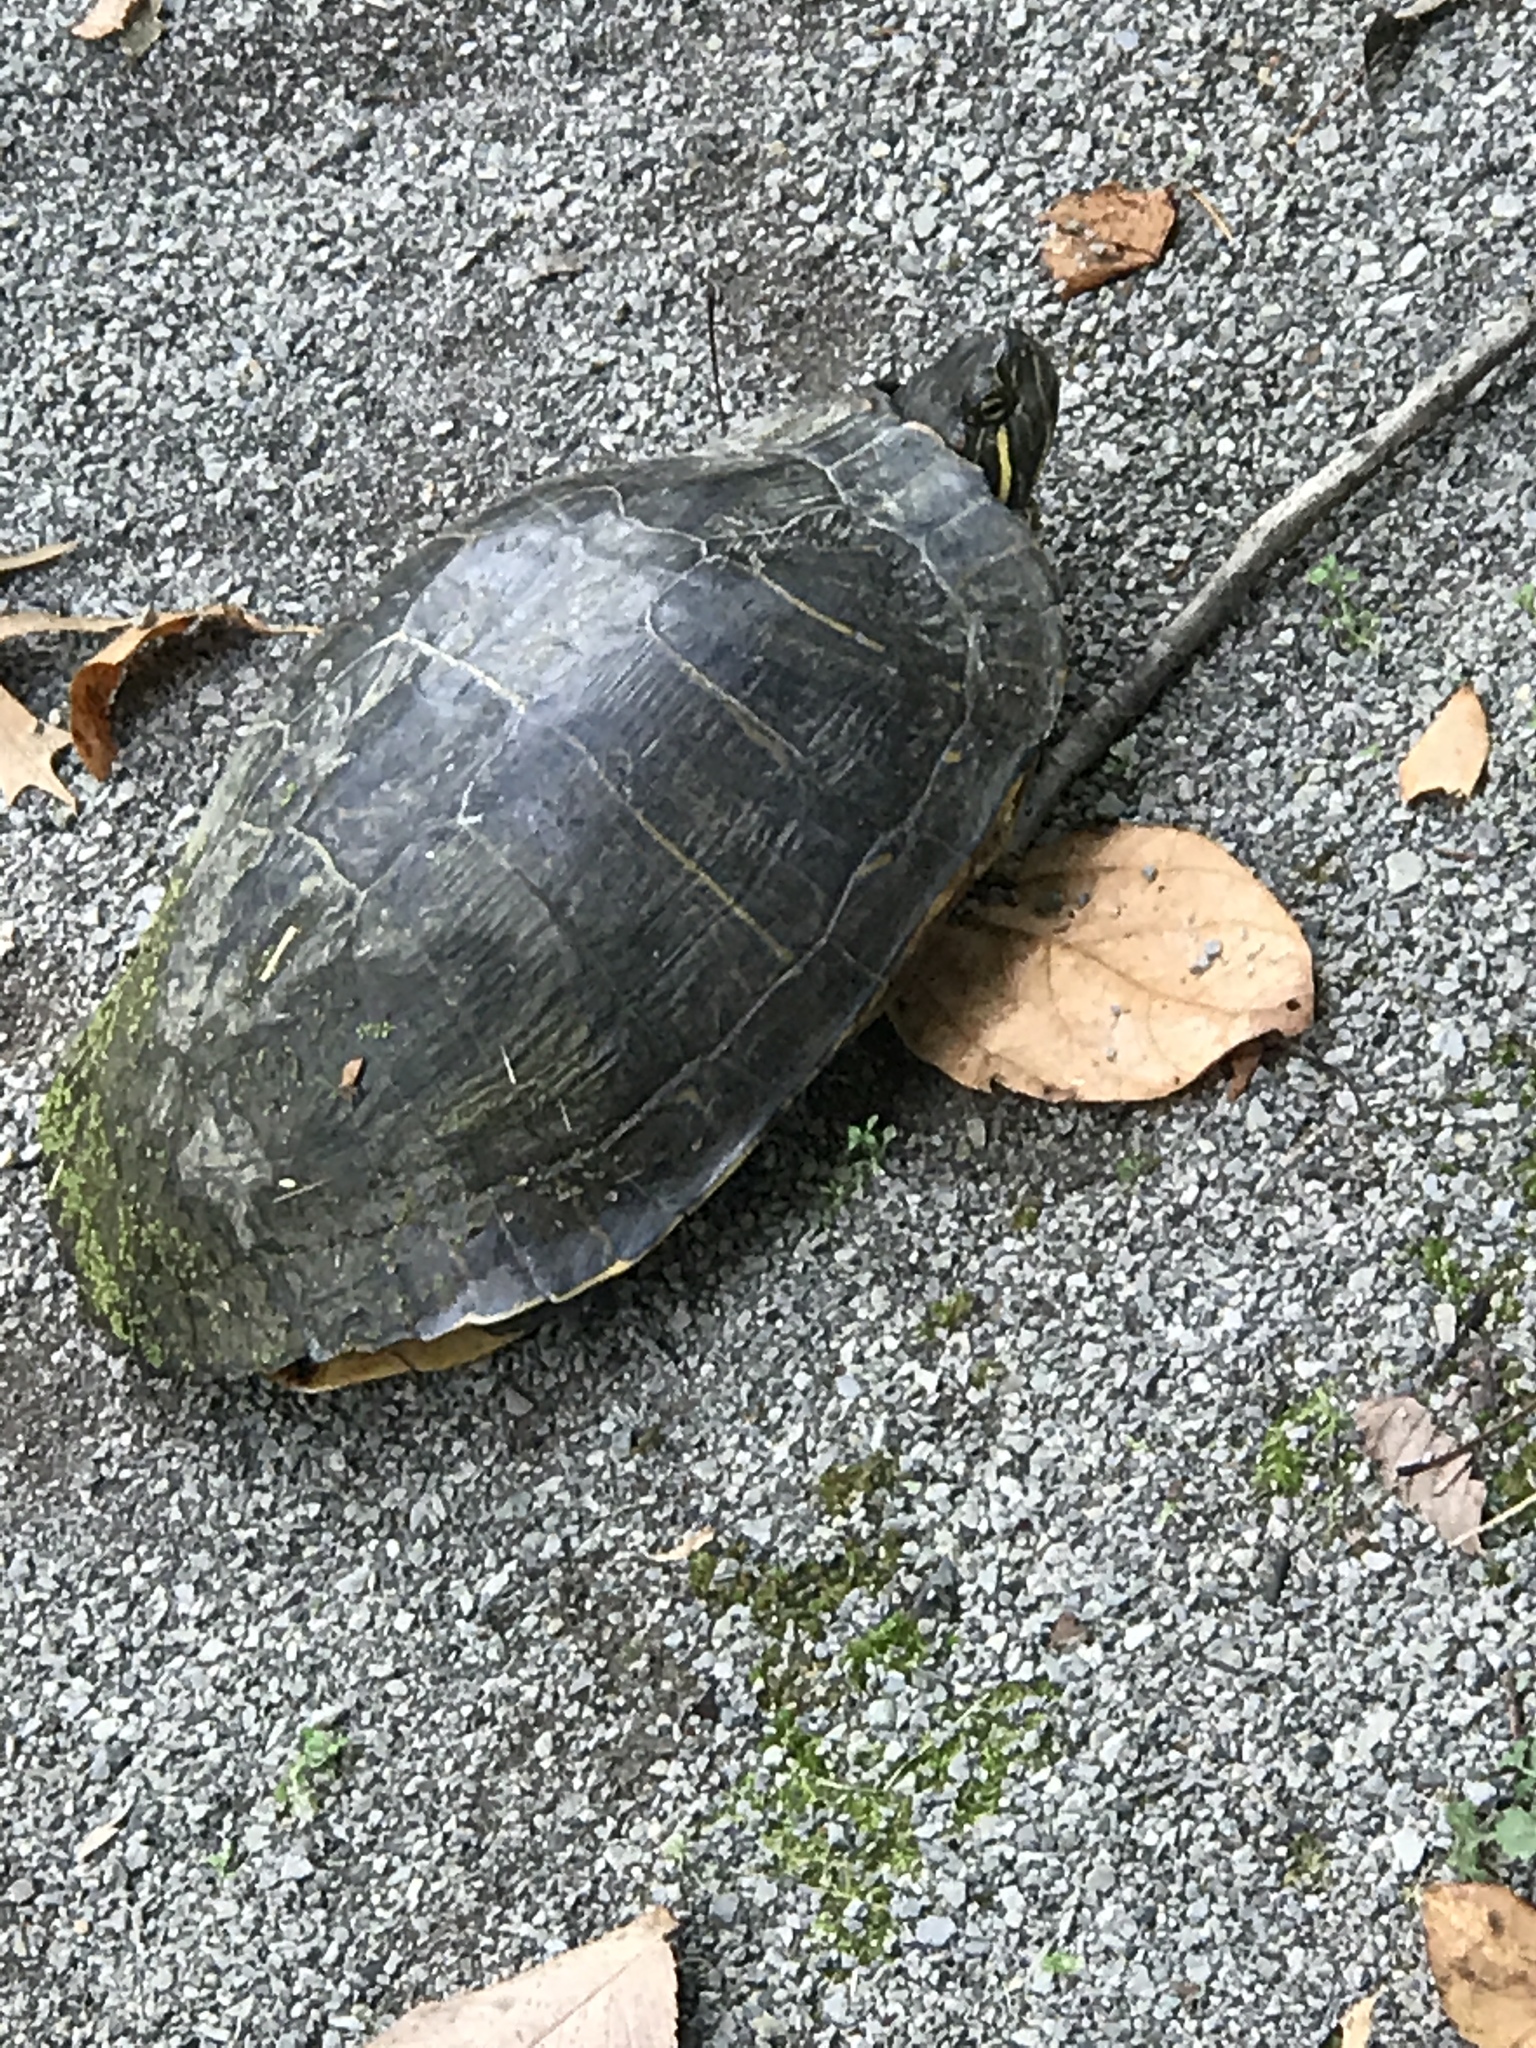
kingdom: Animalia
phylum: Chordata
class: Testudines
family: Emydidae
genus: Trachemys
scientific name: Trachemys scripta
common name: Slider
